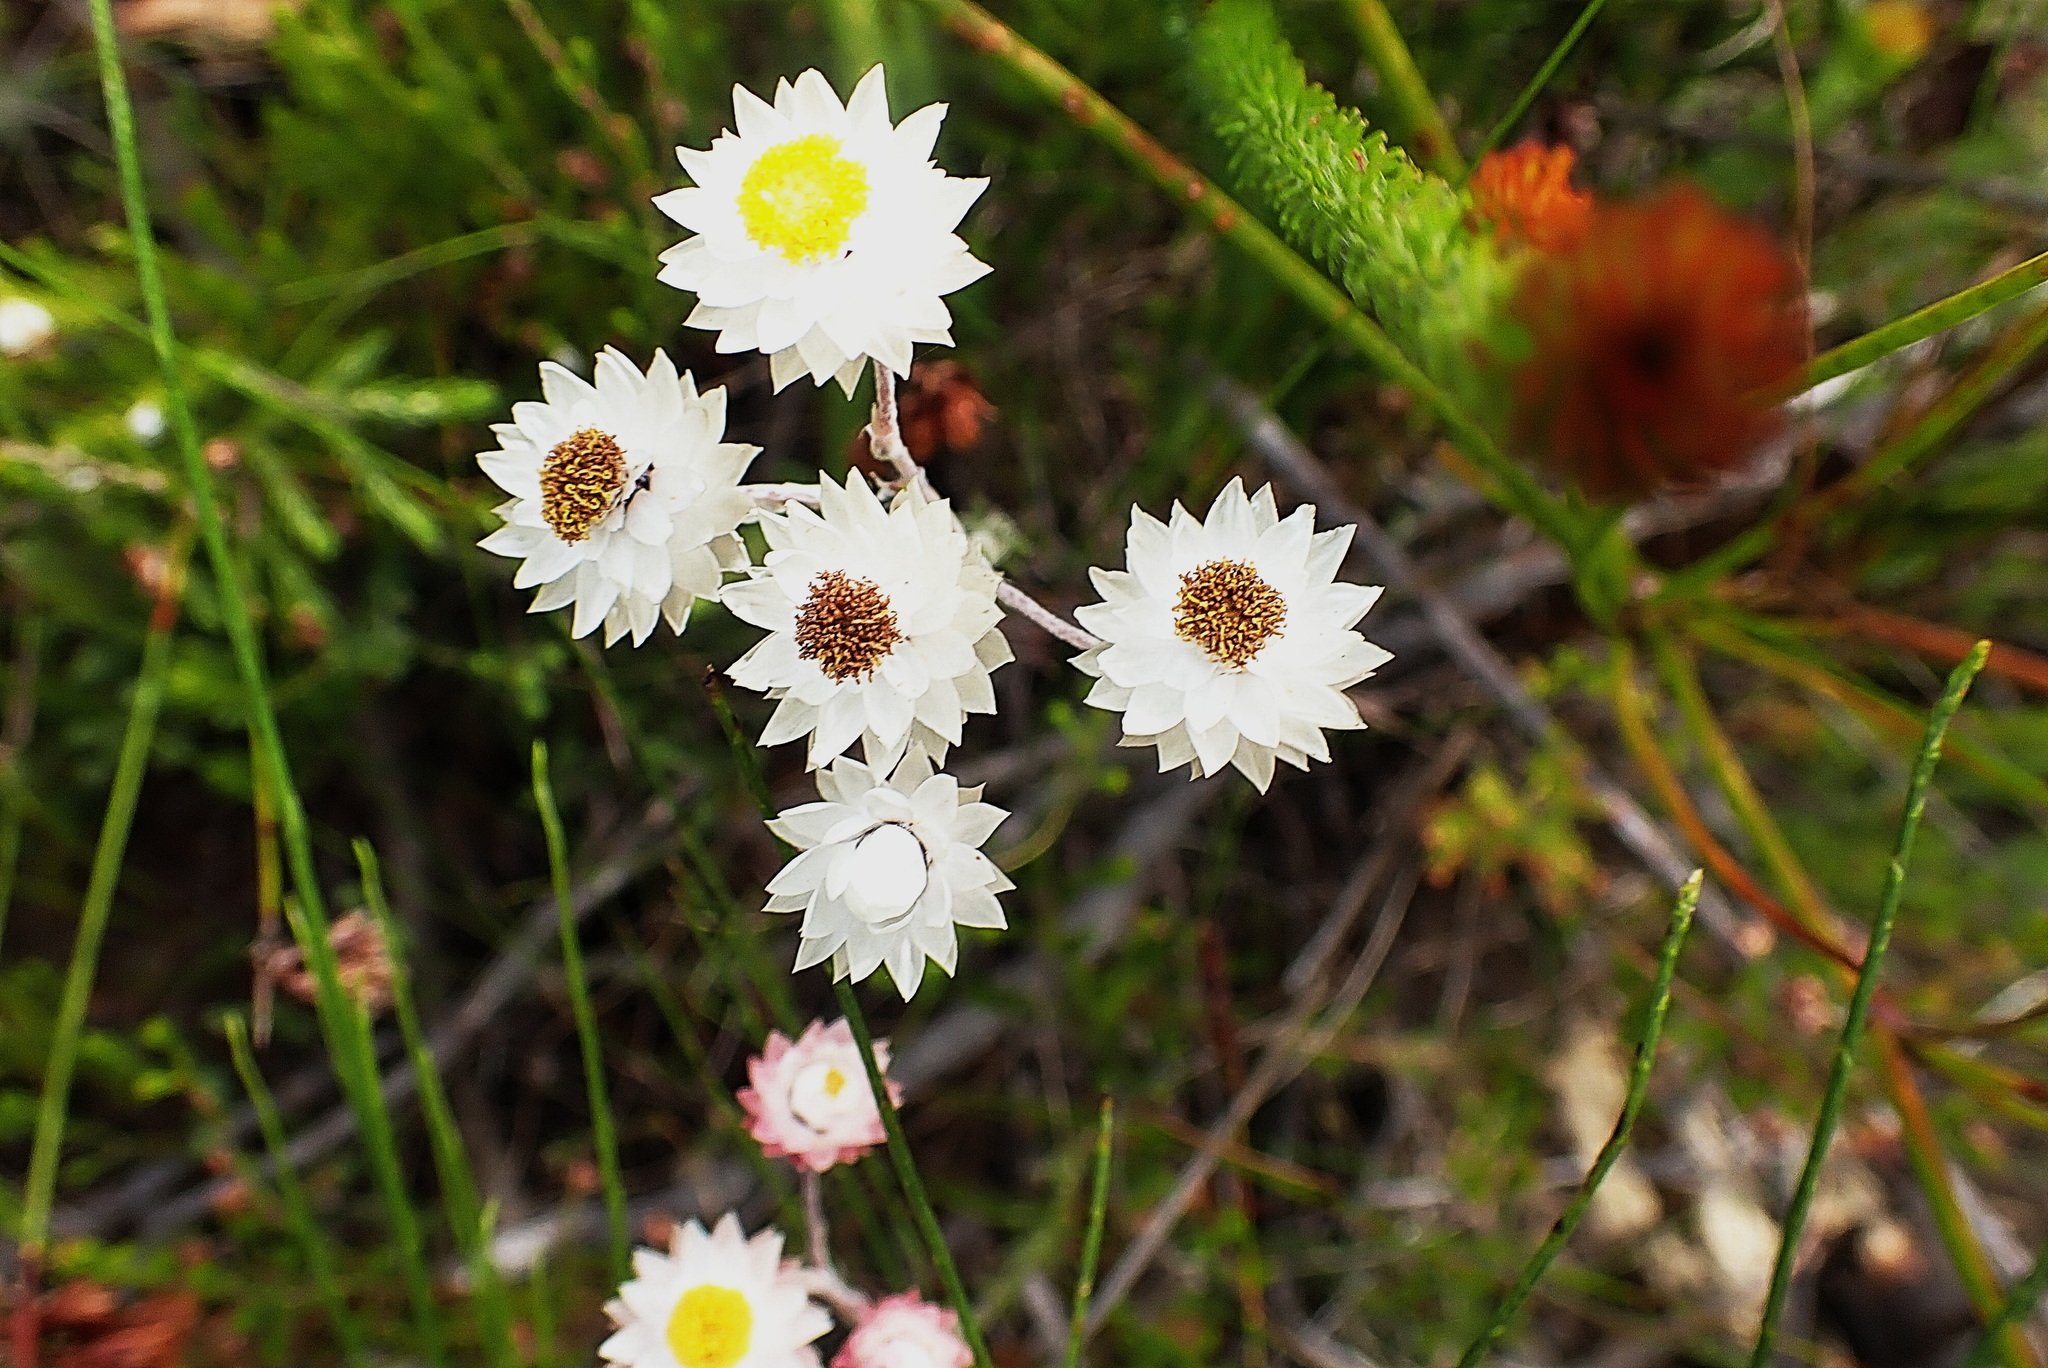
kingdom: Plantae
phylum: Tracheophyta
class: Magnoliopsida
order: Asterales
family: Asteraceae
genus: Achyranthemum
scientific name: Achyranthemum paniculatum
